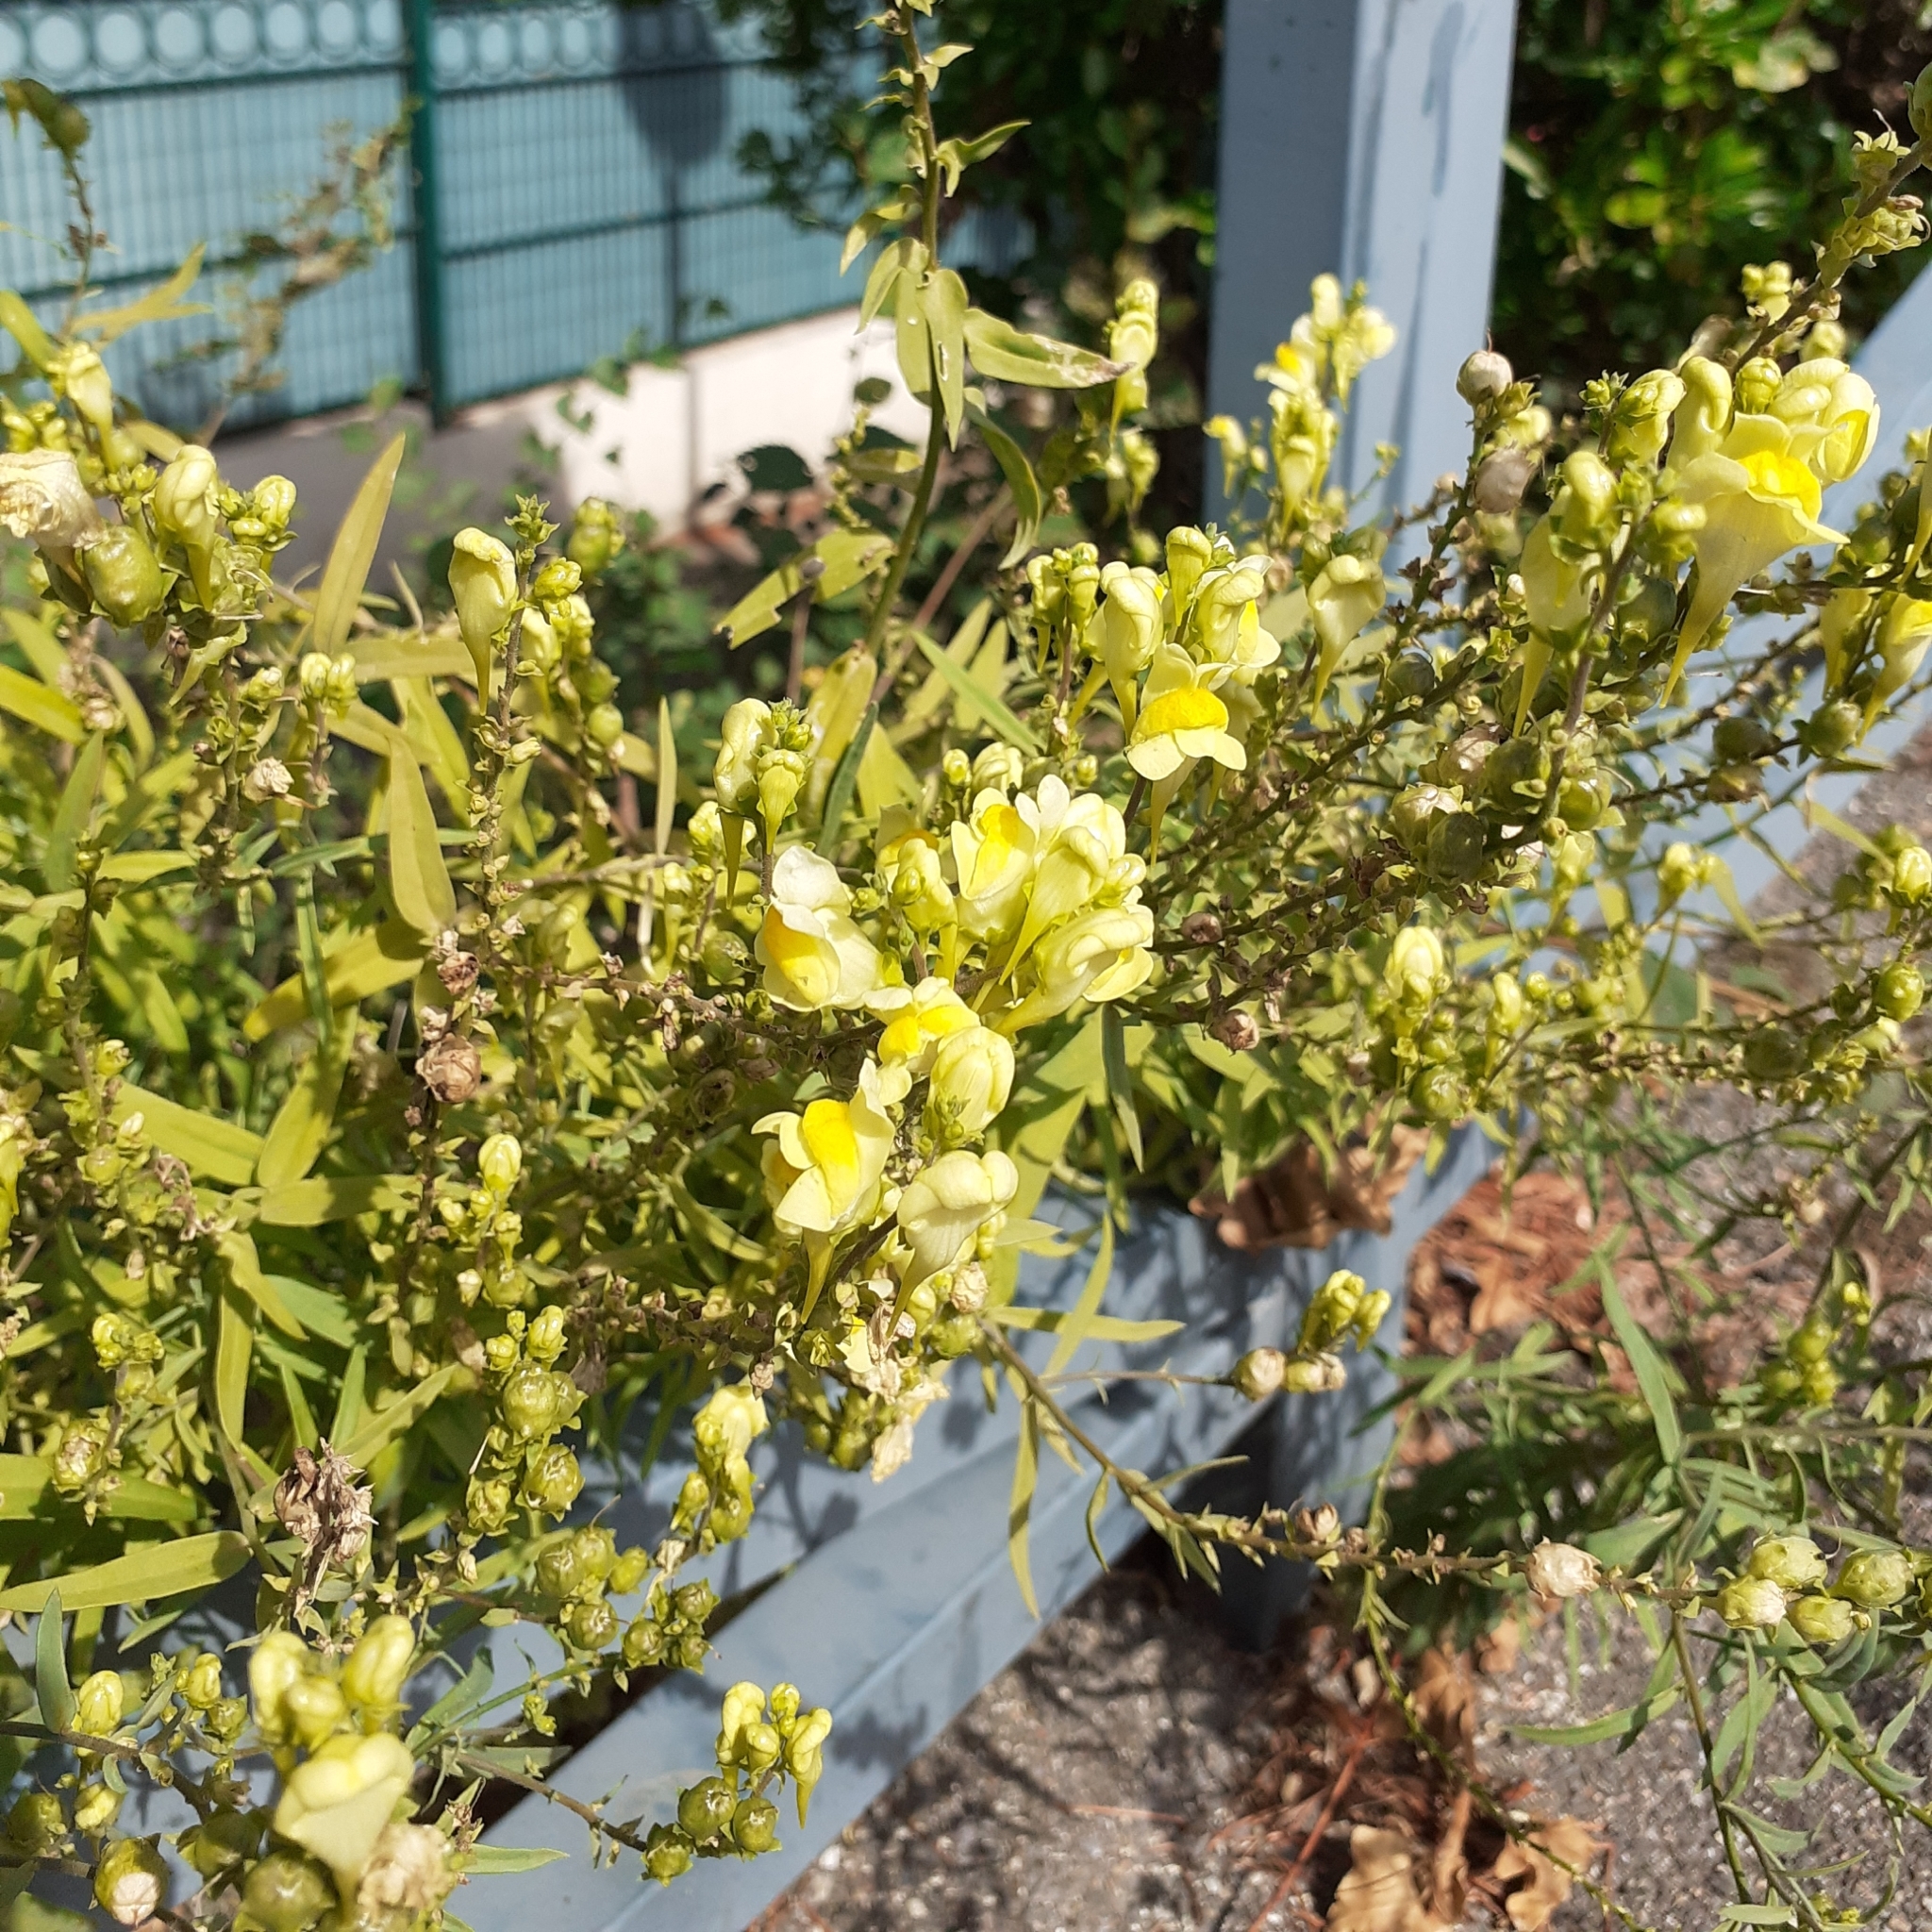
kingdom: Plantae
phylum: Tracheophyta
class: Magnoliopsida
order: Lamiales
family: Plantaginaceae
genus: Linaria
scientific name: Linaria vulgaris
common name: Butter and eggs
